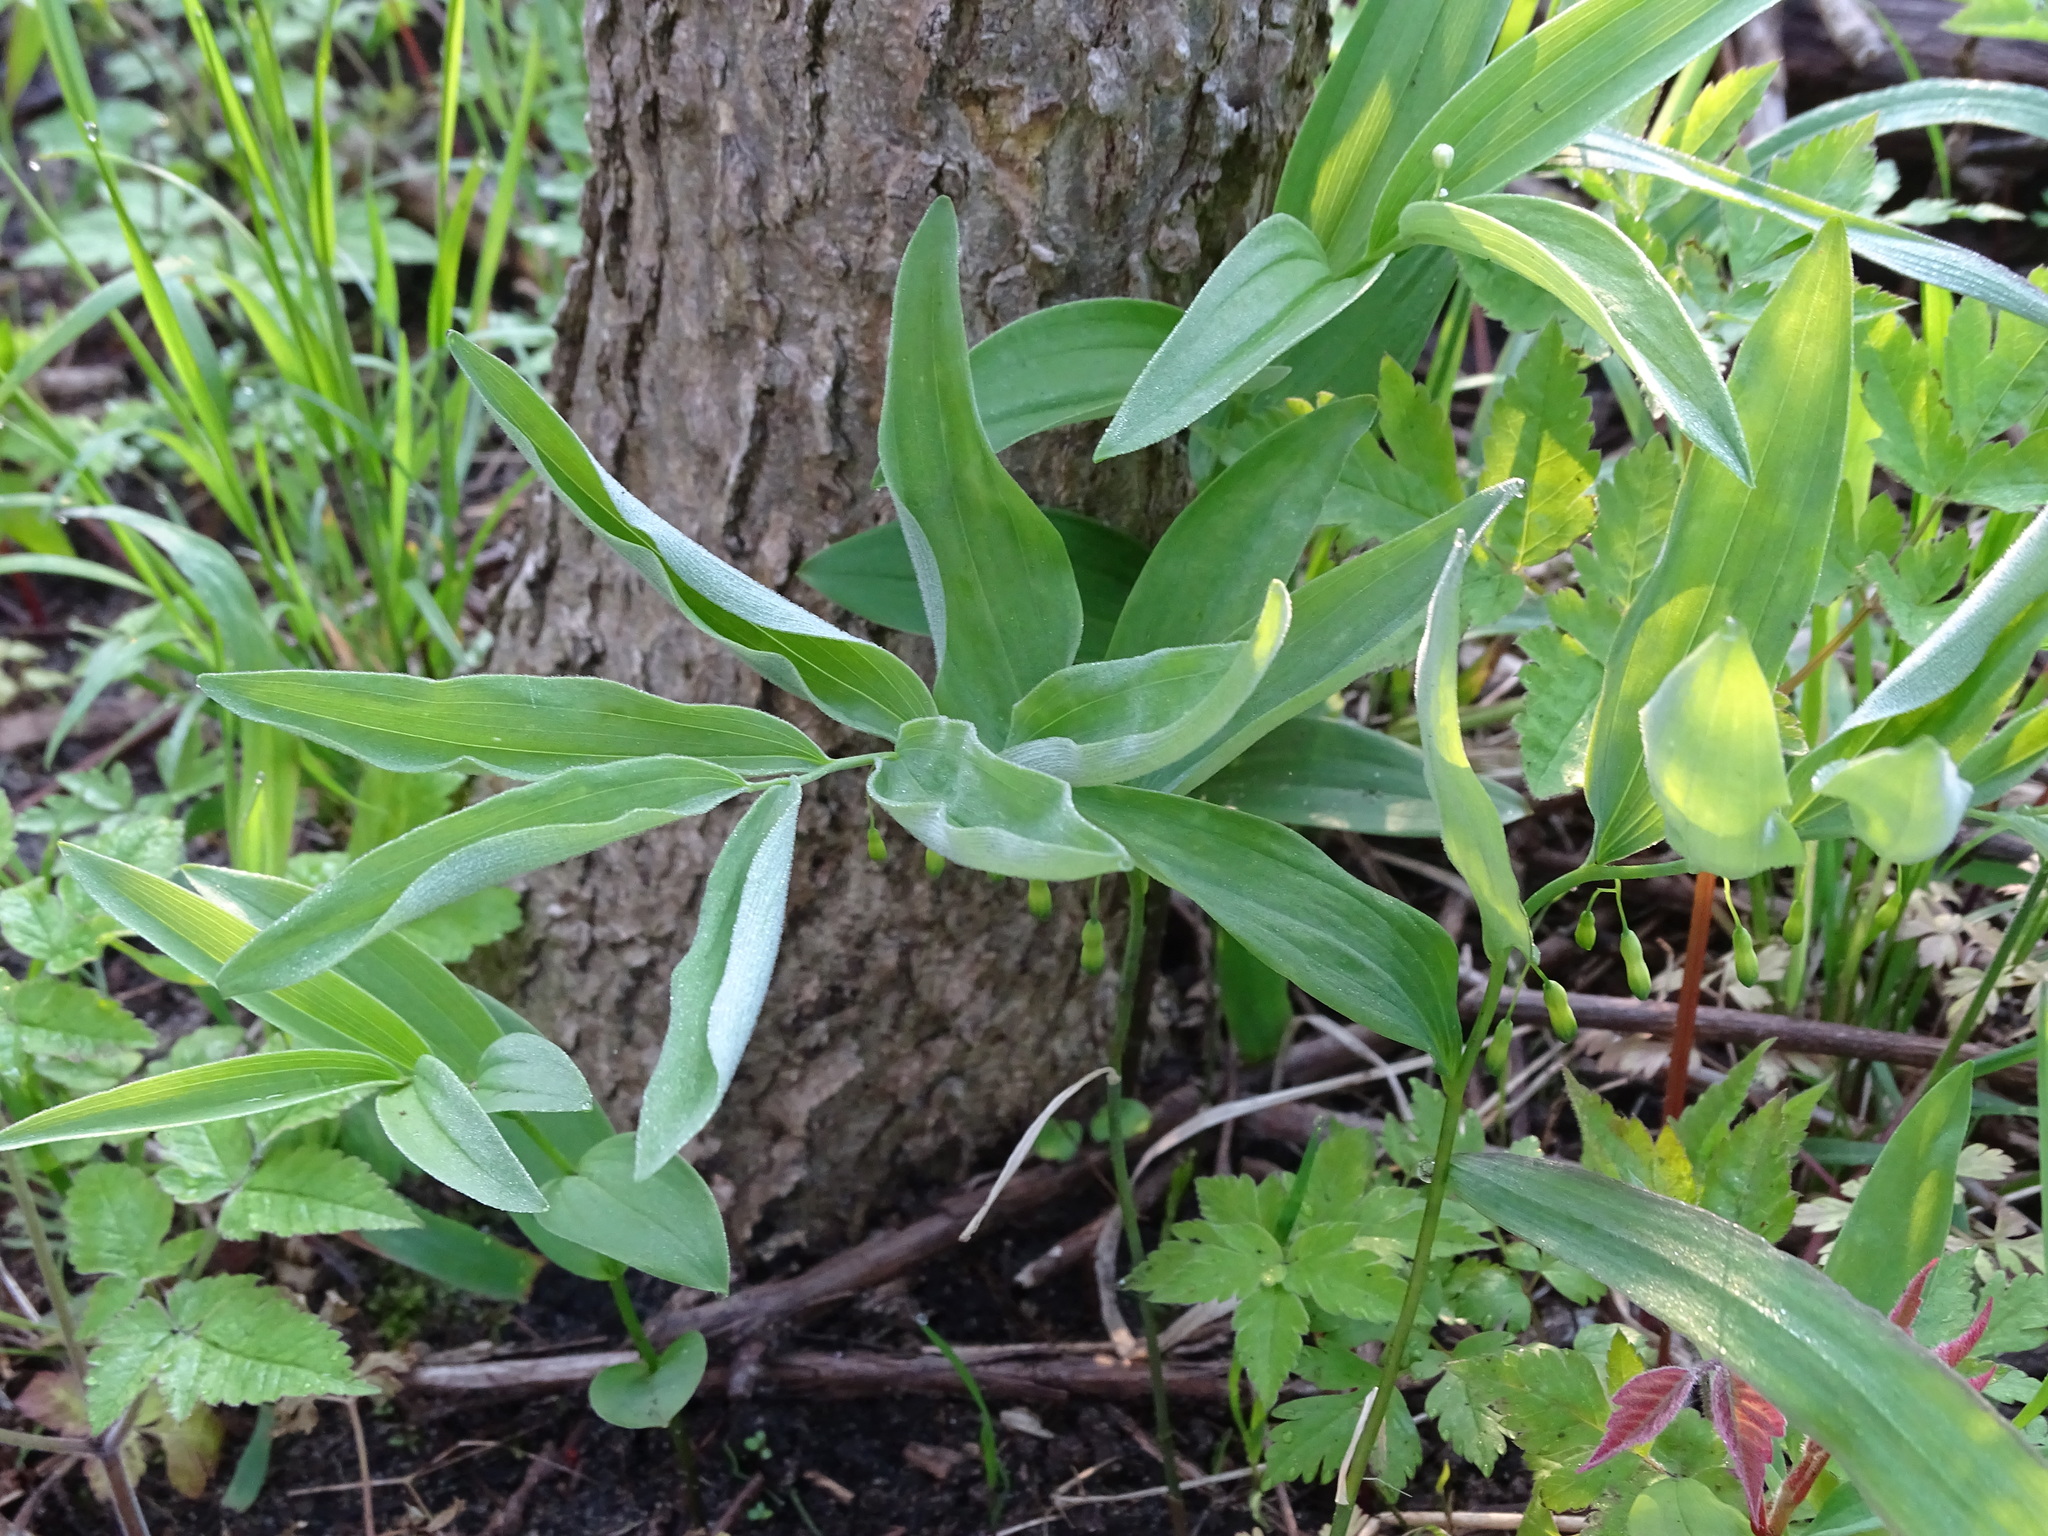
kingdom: Plantae
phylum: Tracheophyta
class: Liliopsida
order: Asparagales
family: Asparagaceae
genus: Polygonatum
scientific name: Polygonatum pubescens
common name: Downy solomon's seal
